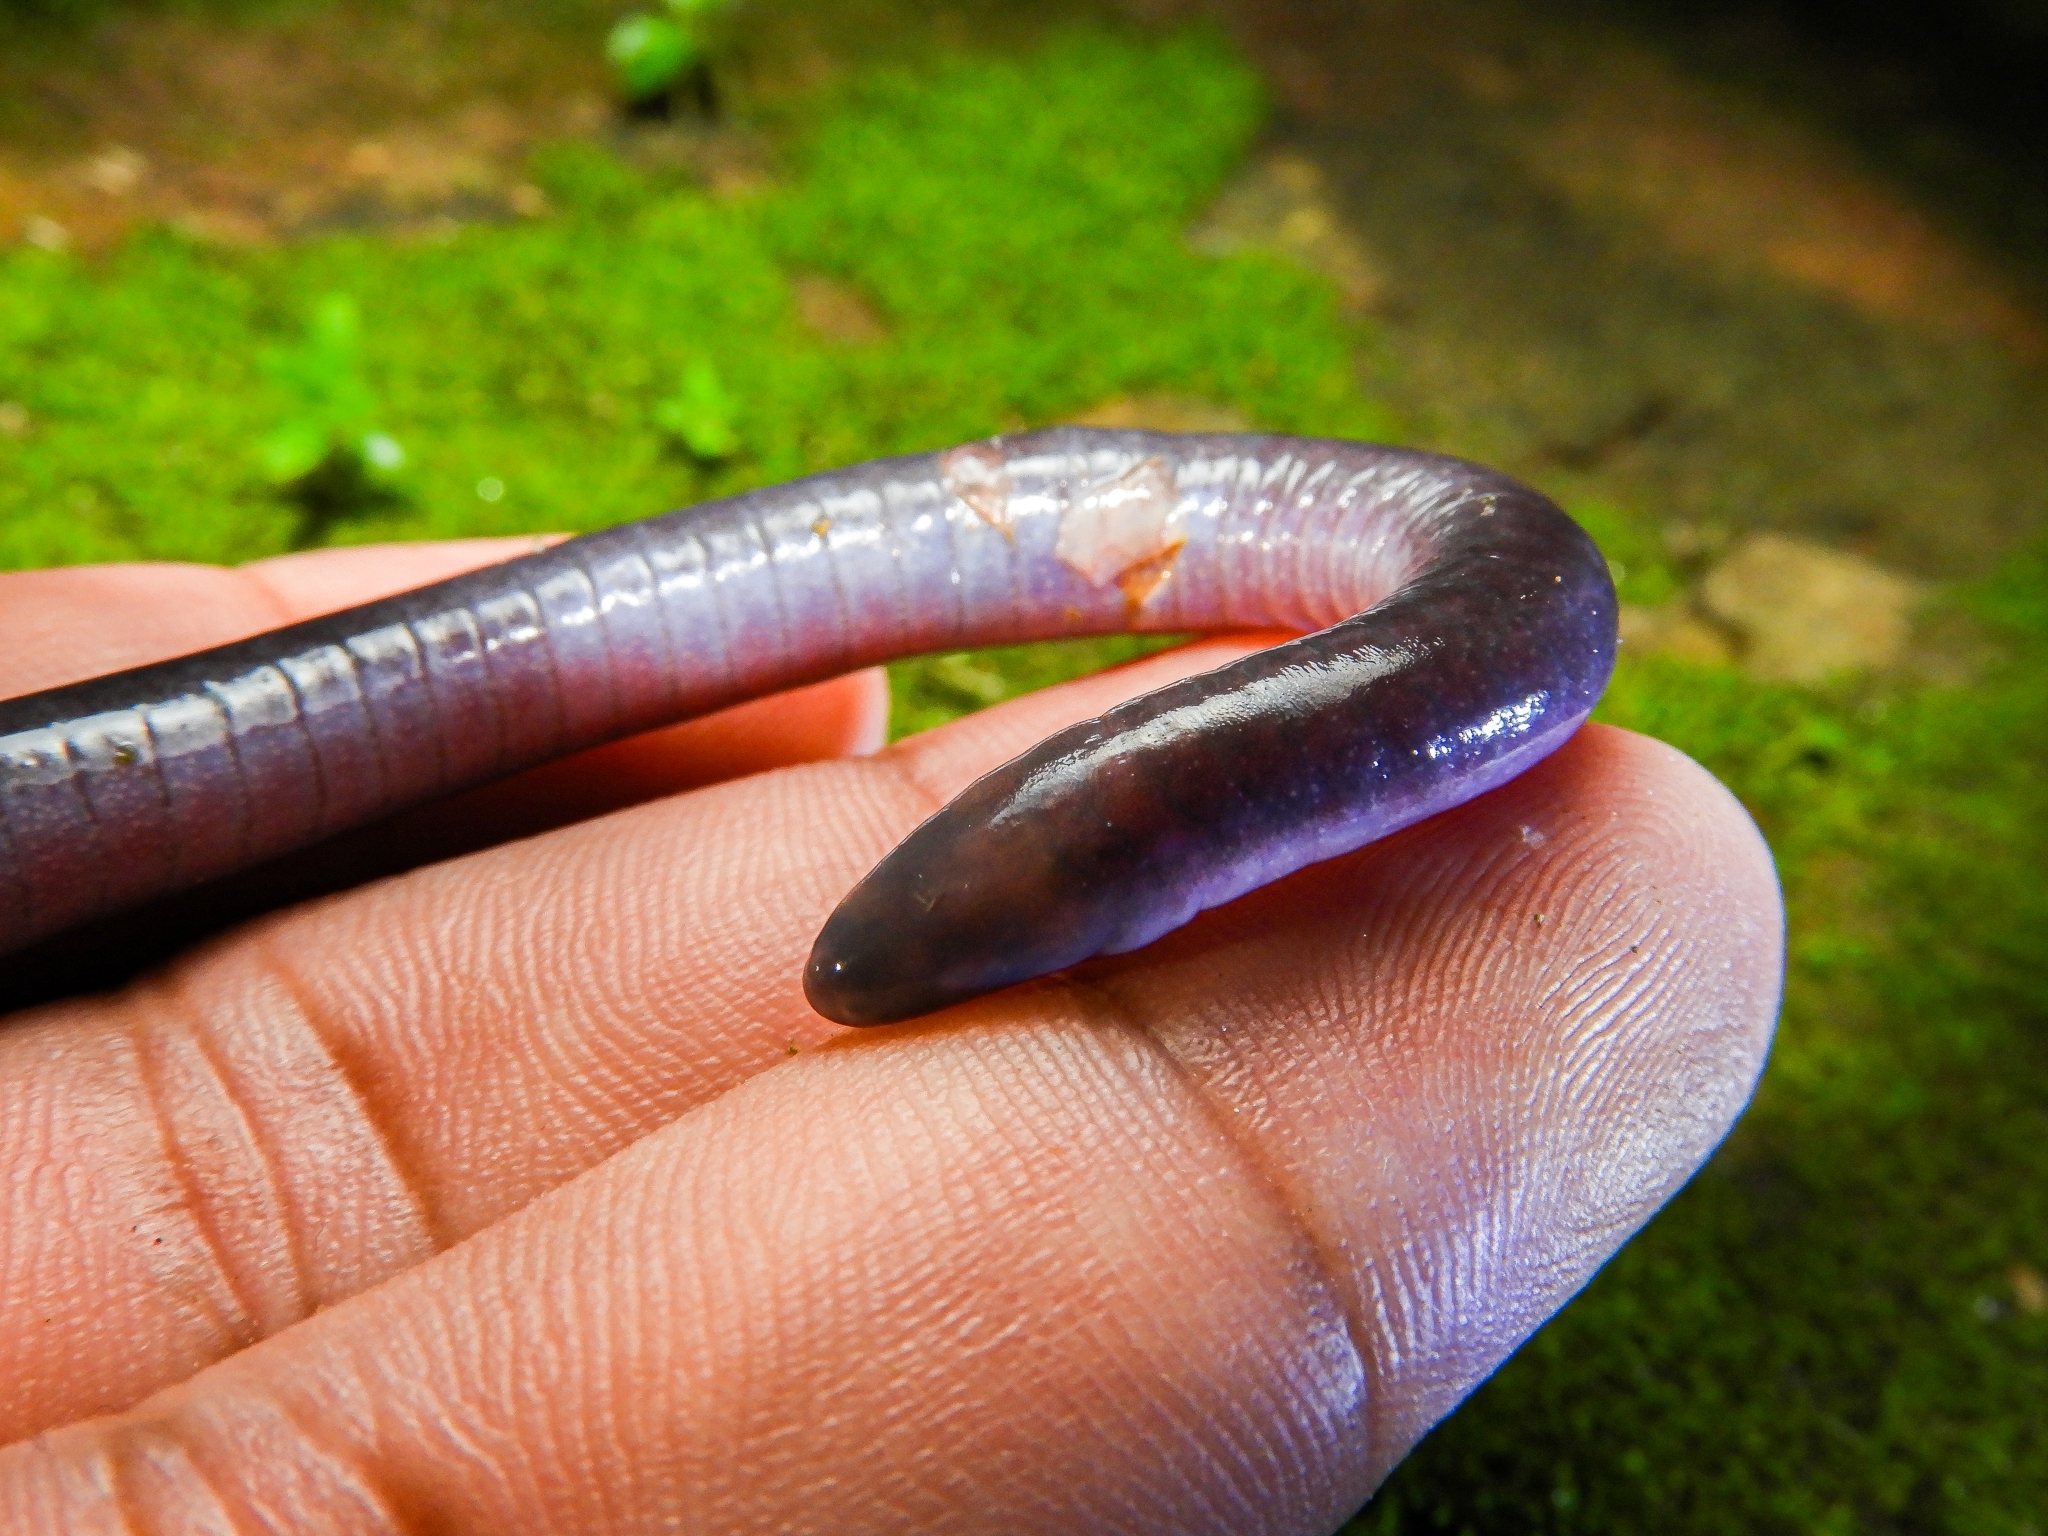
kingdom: Animalia
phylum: Chordata
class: Amphibia
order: Gymnophiona
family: Caeciliidae
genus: Caecilia
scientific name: Caecilia subnigricans
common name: Magdalena valley caecilian
